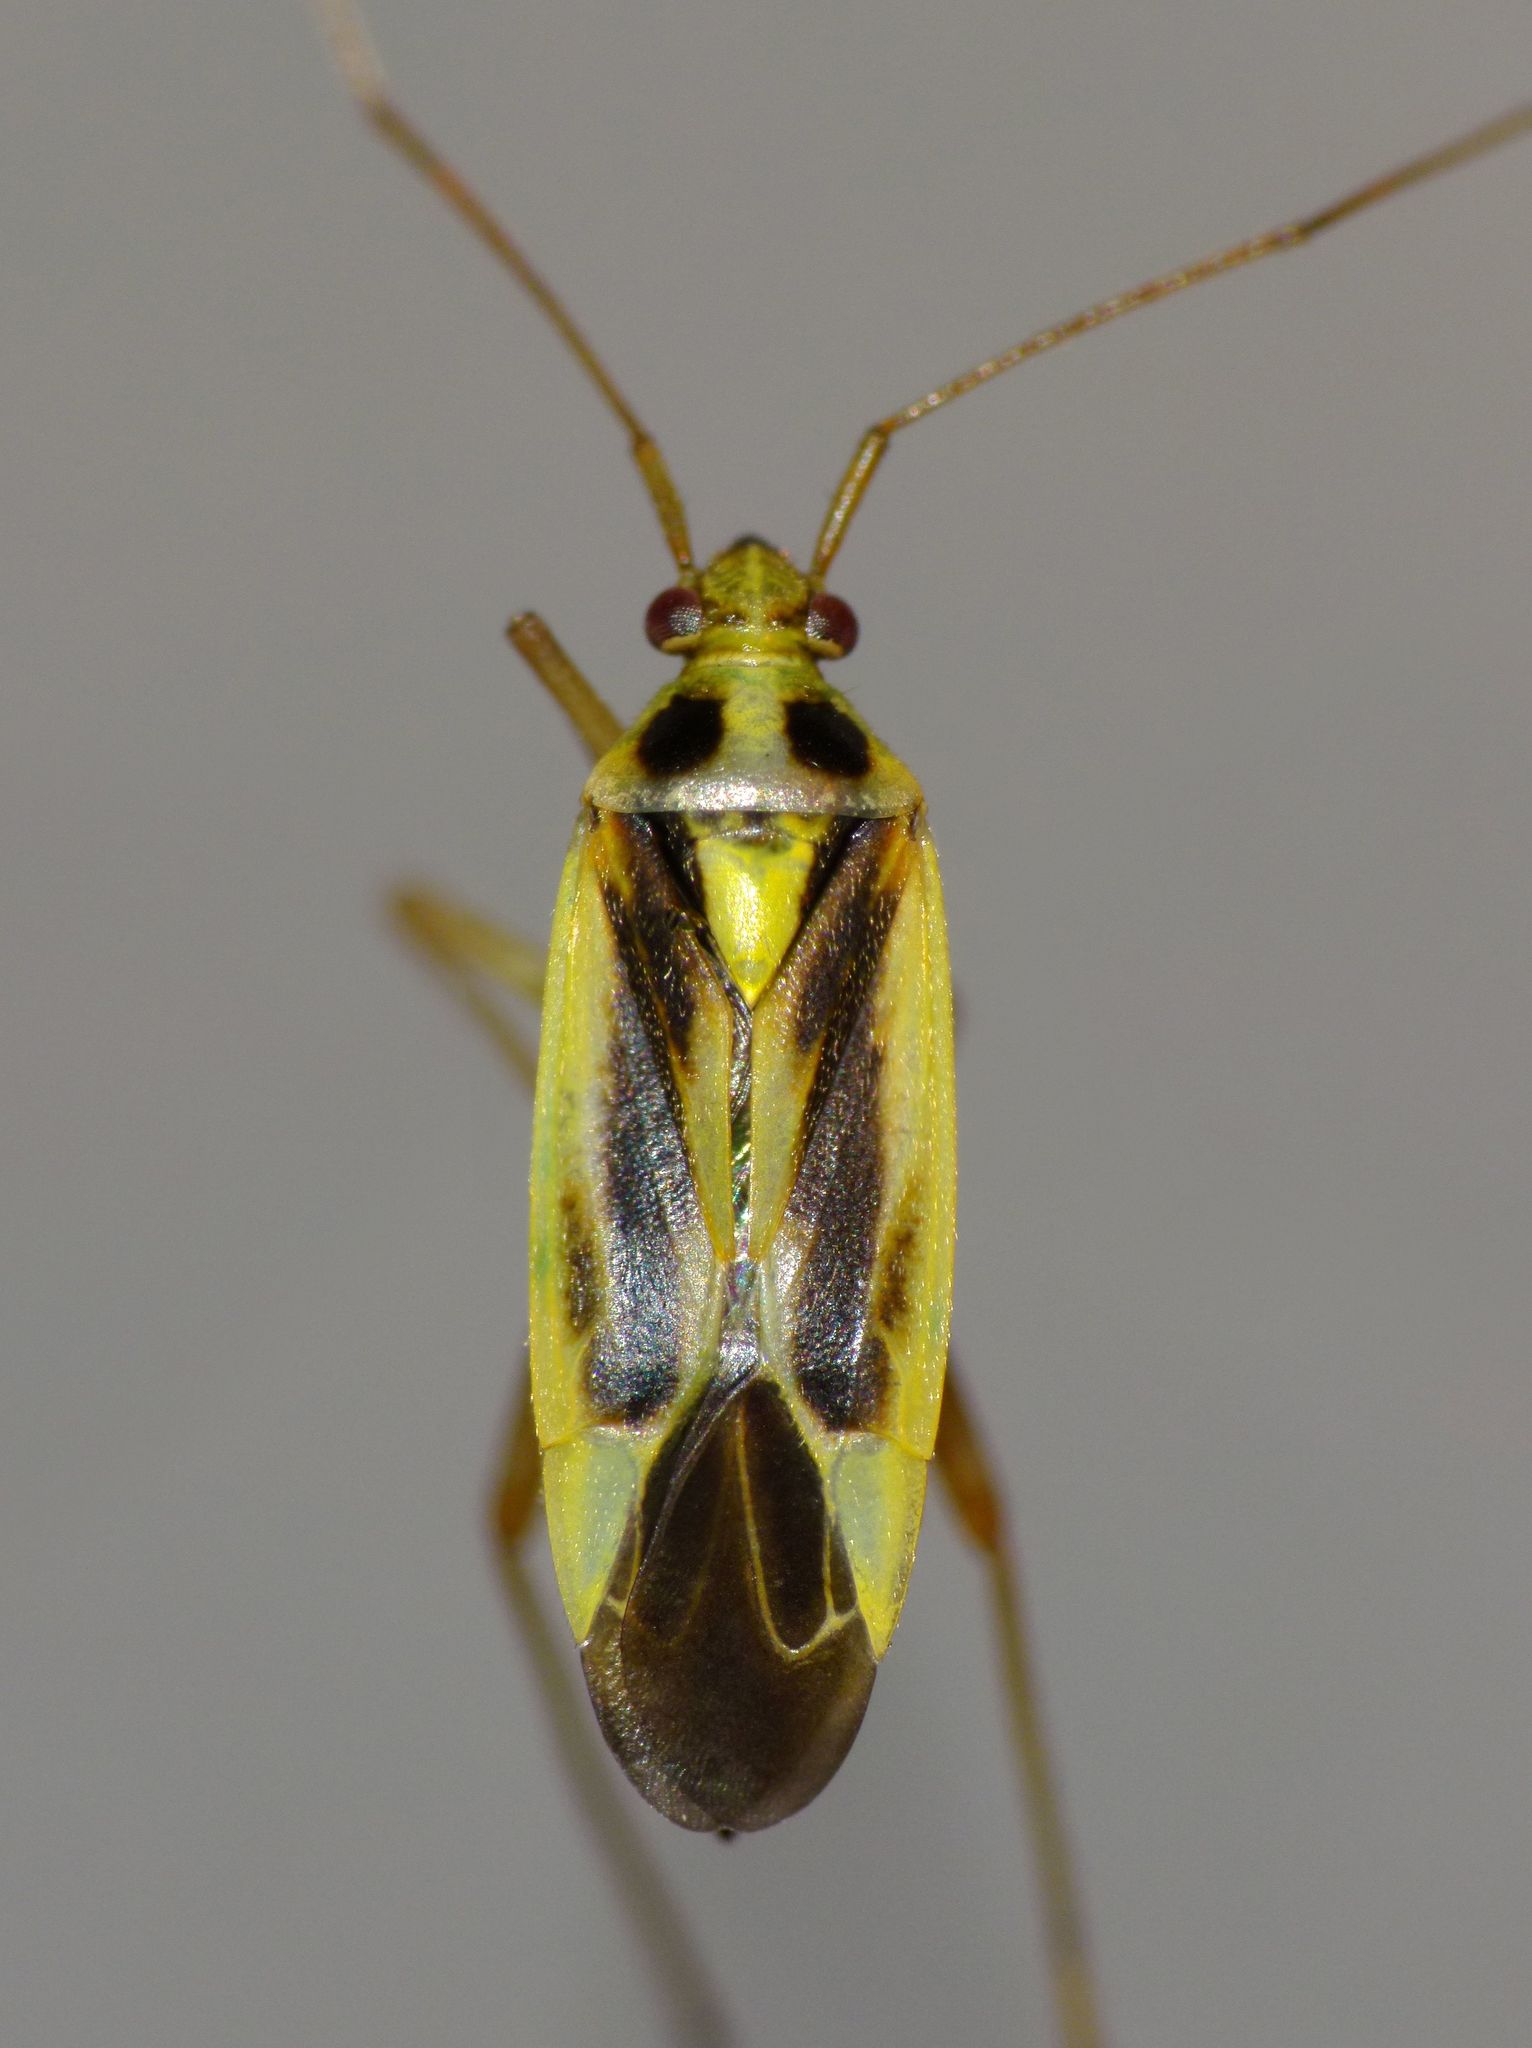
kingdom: Animalia
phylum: Arthropoda
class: Insecta
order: Hemiptera
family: Miridae
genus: Stenotus
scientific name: Stenotus binotatus
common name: Plant bug
